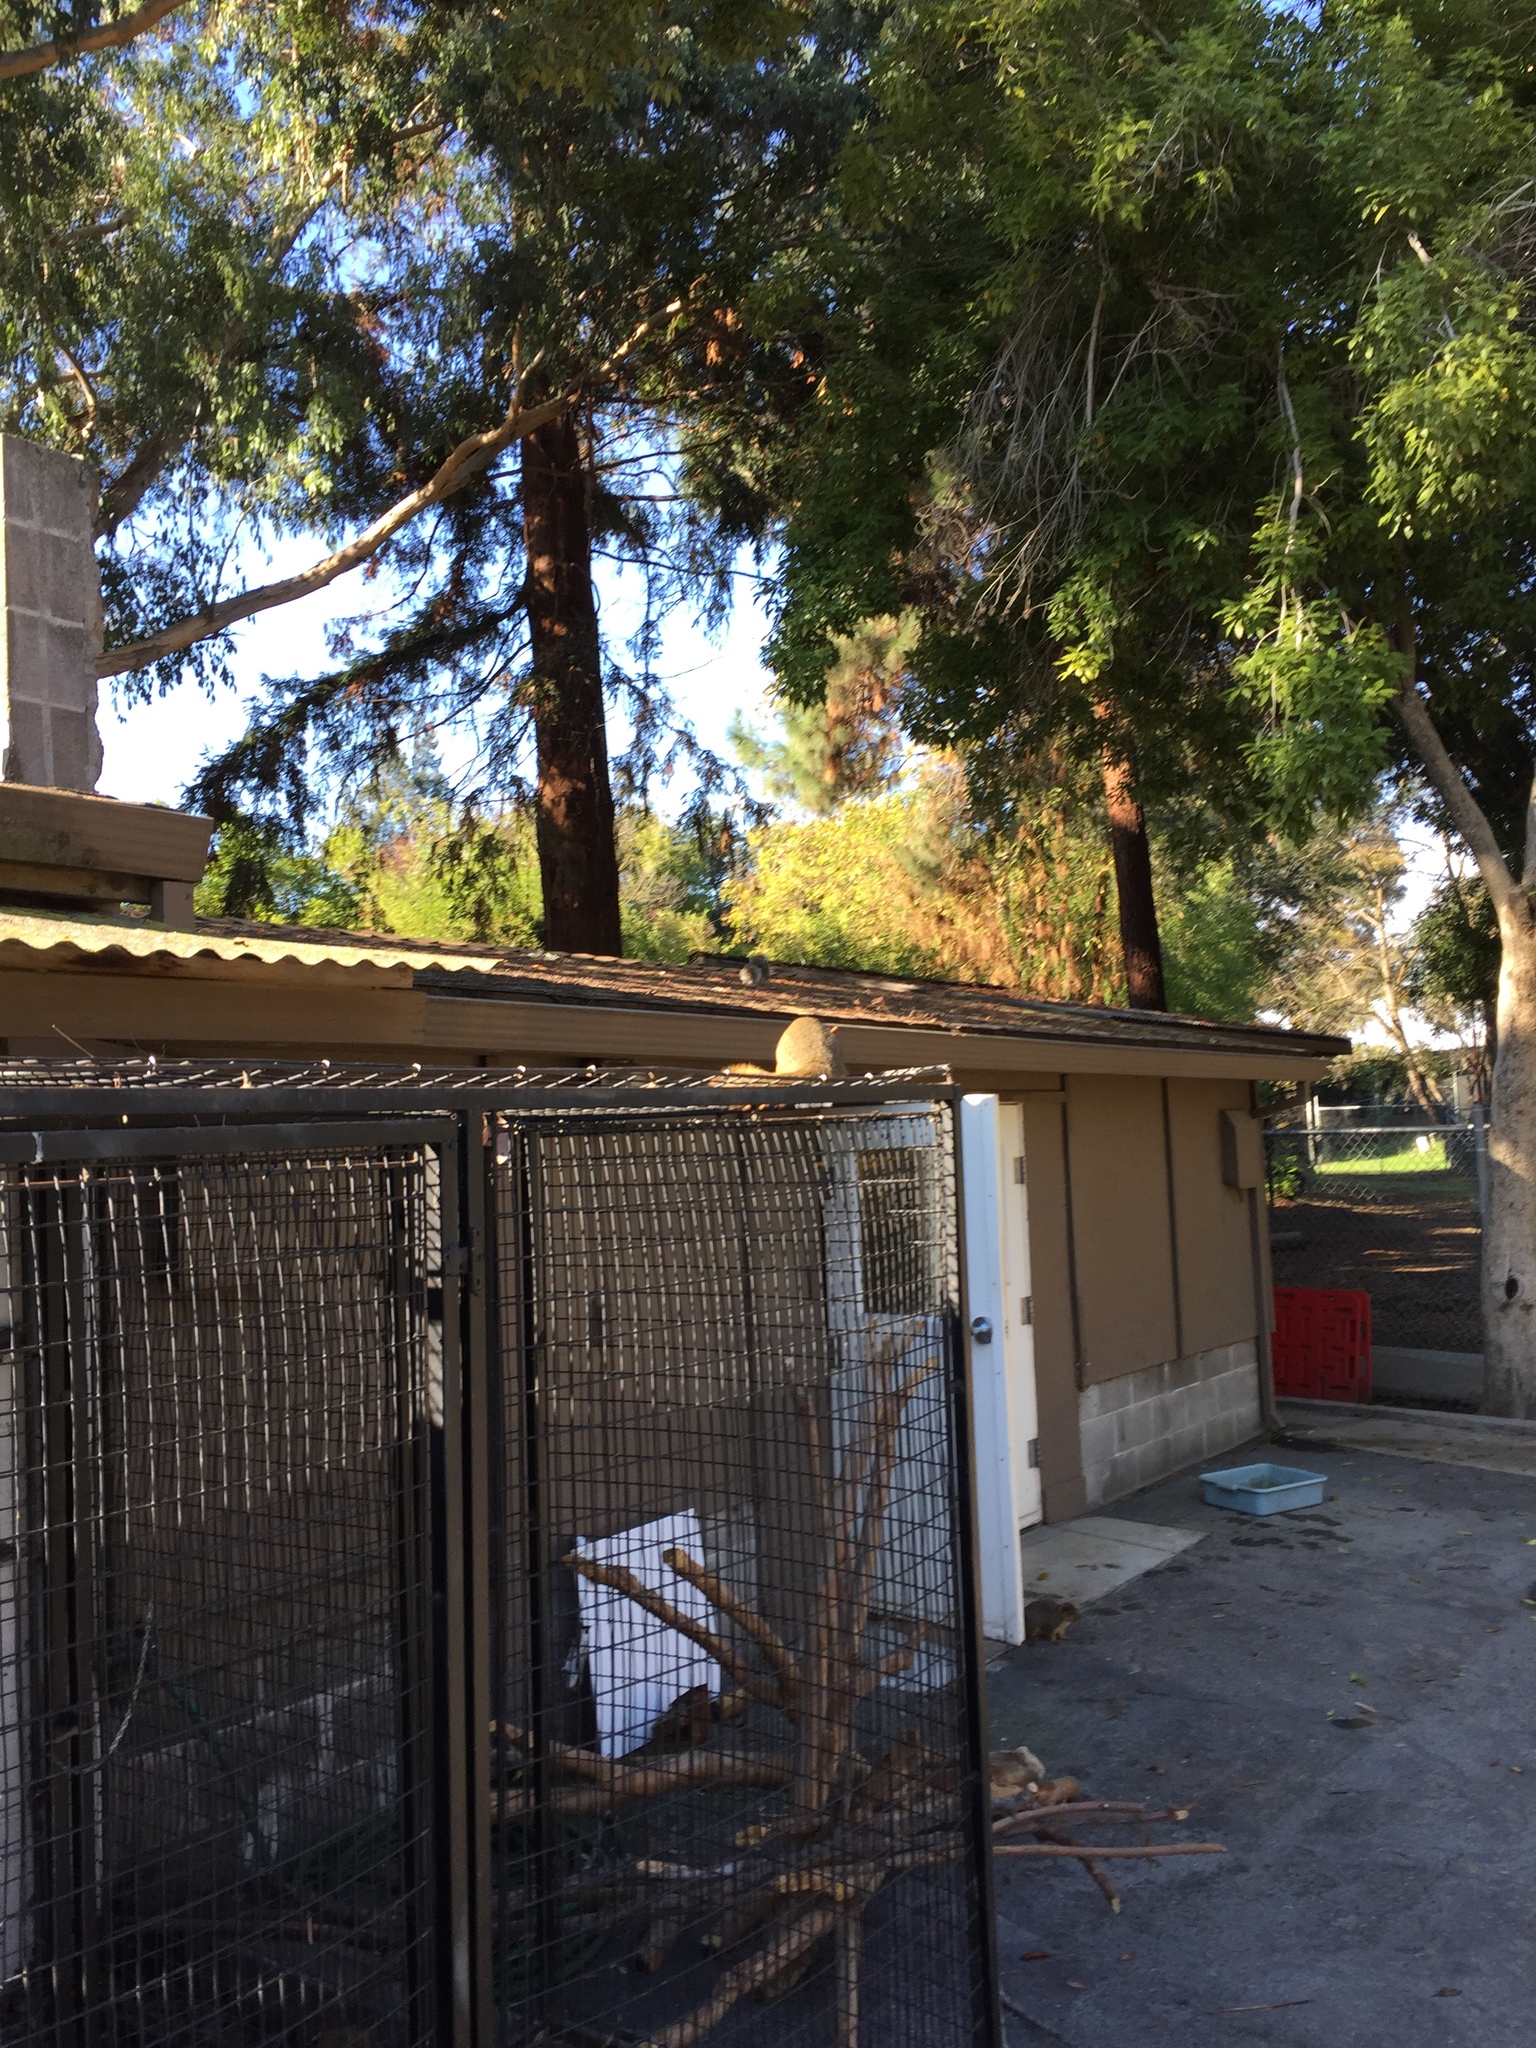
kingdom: Animalia
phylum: Chordata
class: Mammalia
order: Rodentia
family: Sciuridae
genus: Sciurus
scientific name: Sciurus niger
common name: Fox squirrel
